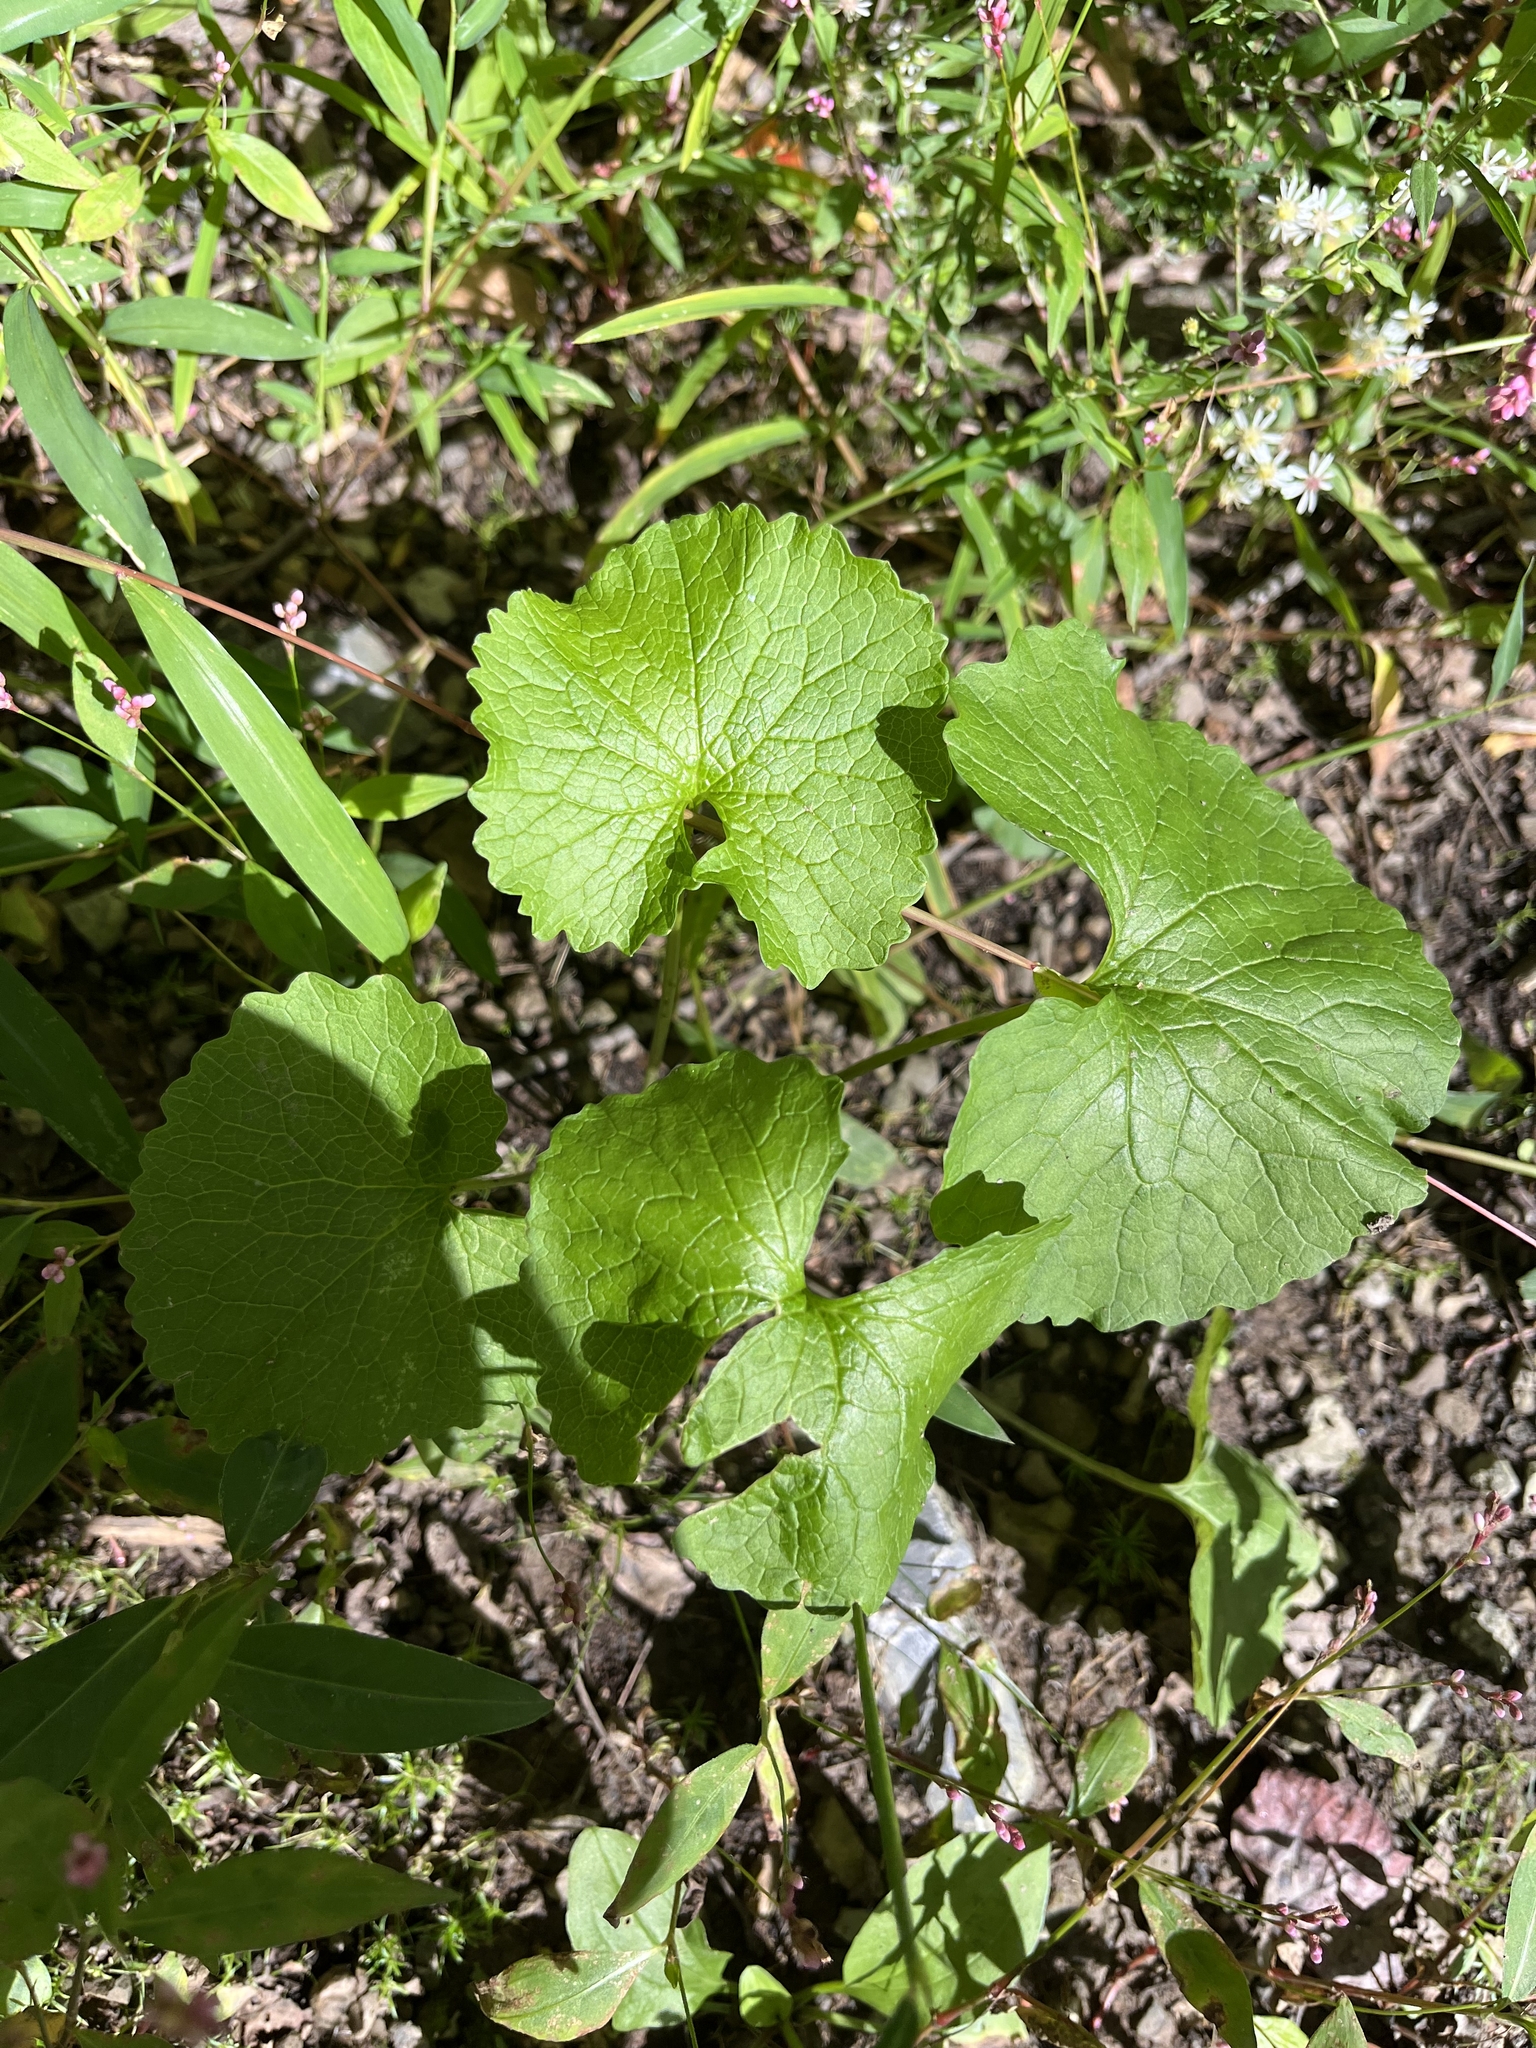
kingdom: Plantae
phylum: Tracheophyta
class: Magnoliopsida
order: Brassicales
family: Brassicaceae
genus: Alliaria
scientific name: Alliaria petiolata
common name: Garlic mustard
